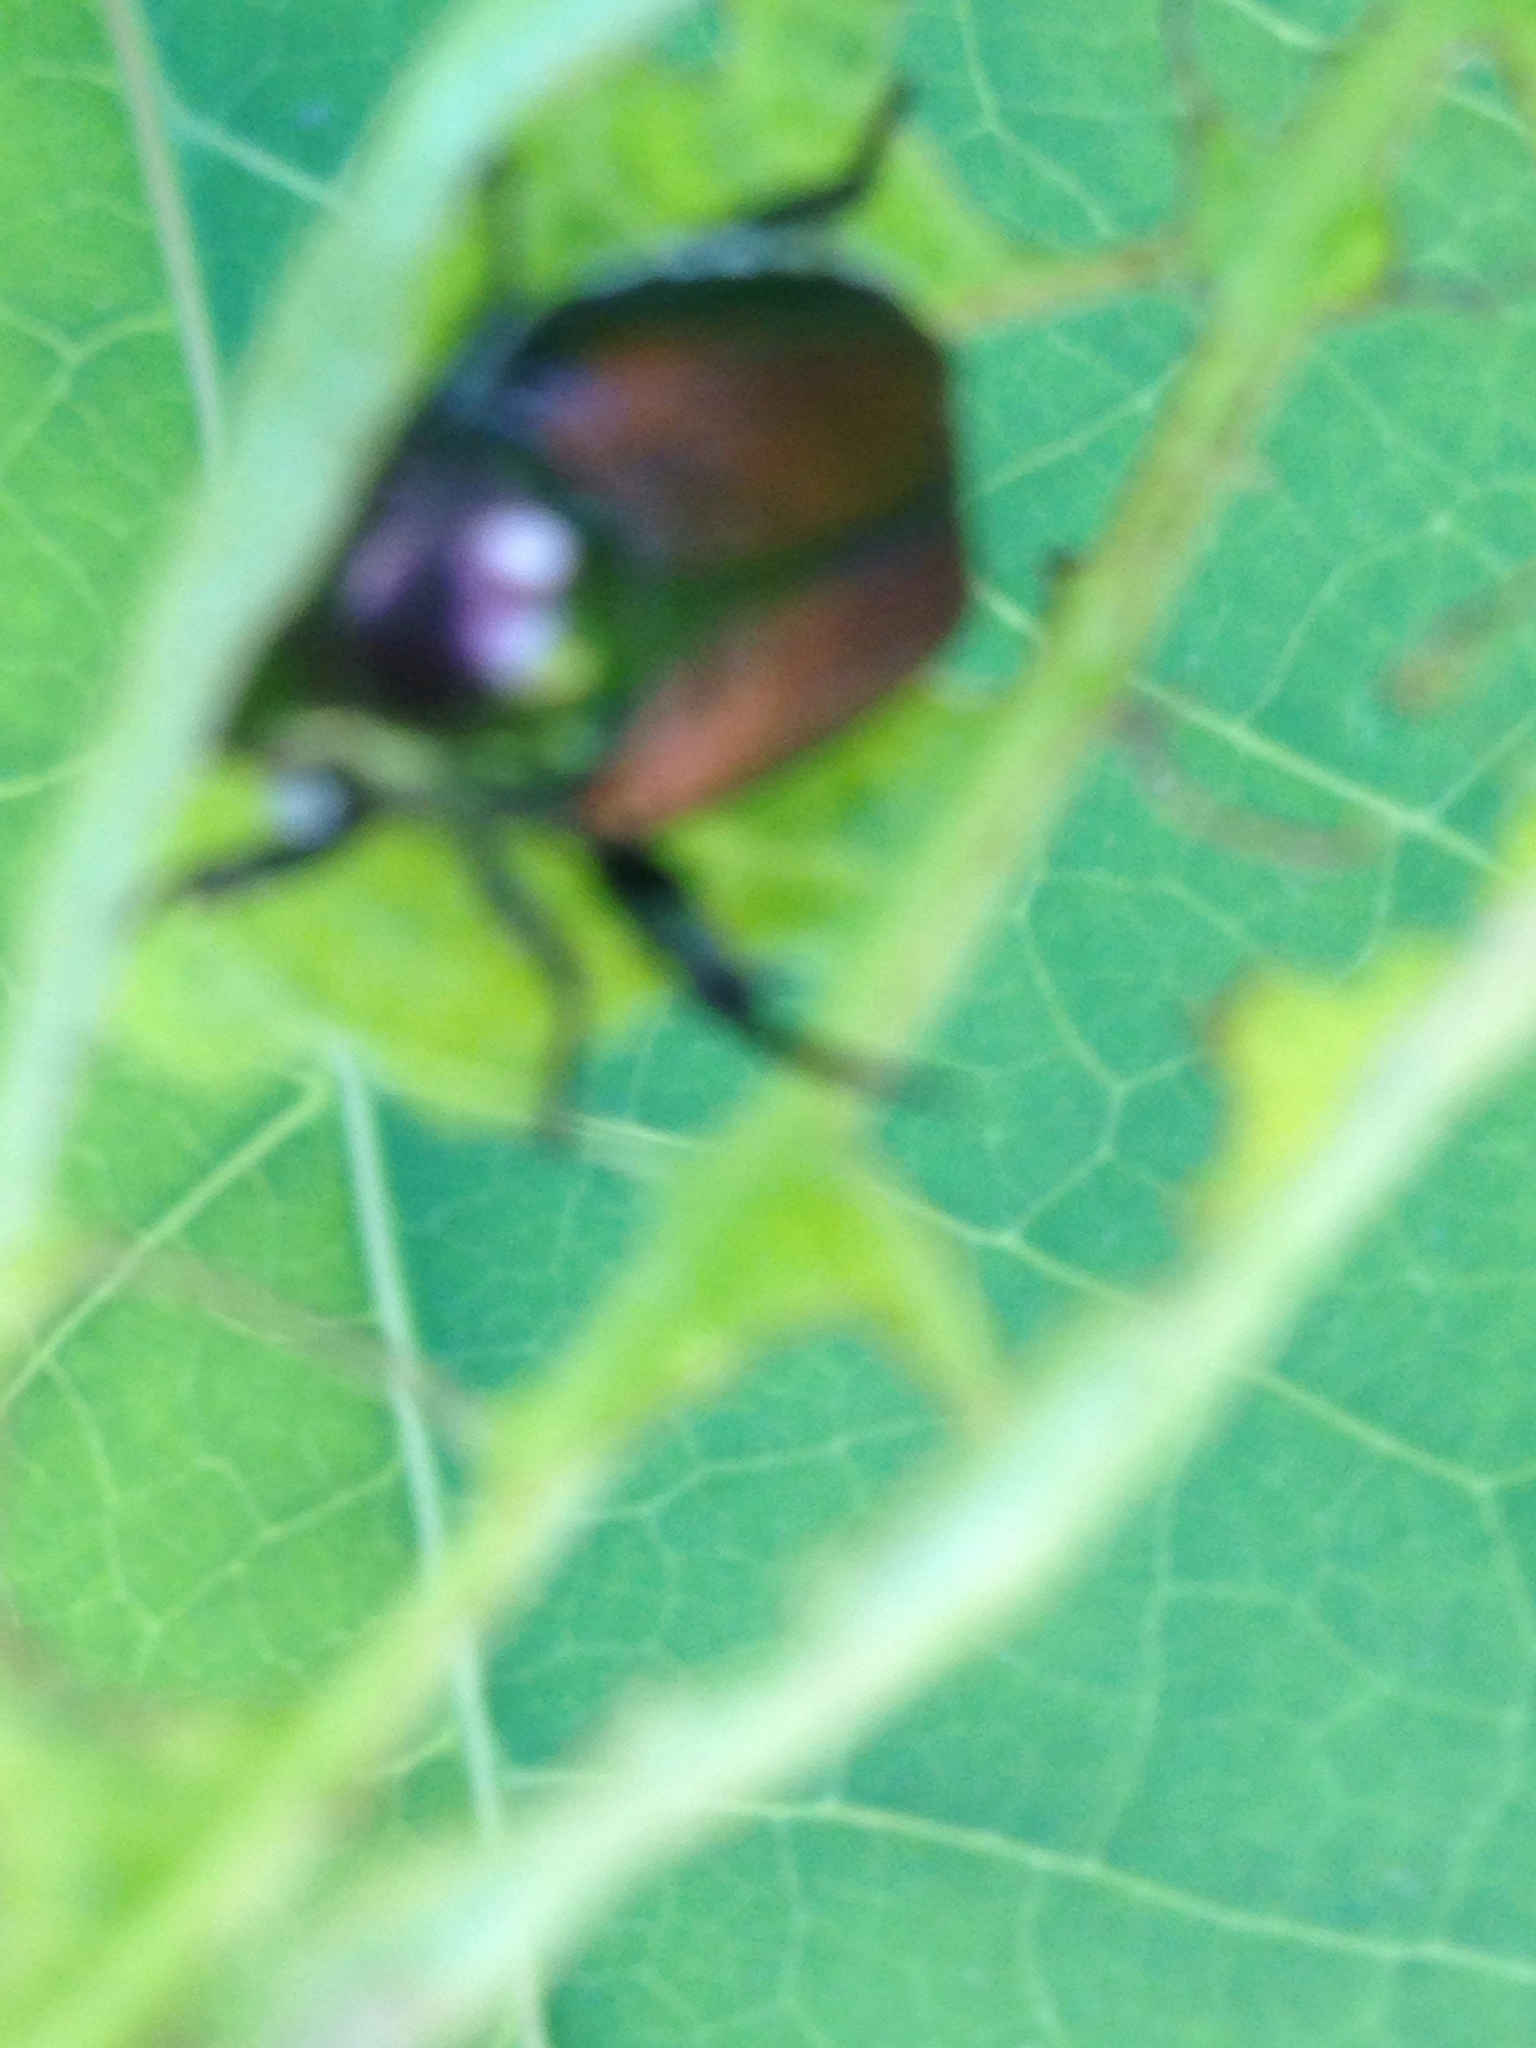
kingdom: Animalia
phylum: Arthropoda
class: Insecta
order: Coleoptera
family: Scarabaeidae
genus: Popillia
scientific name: Popillia japonica
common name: Japanese beetle
